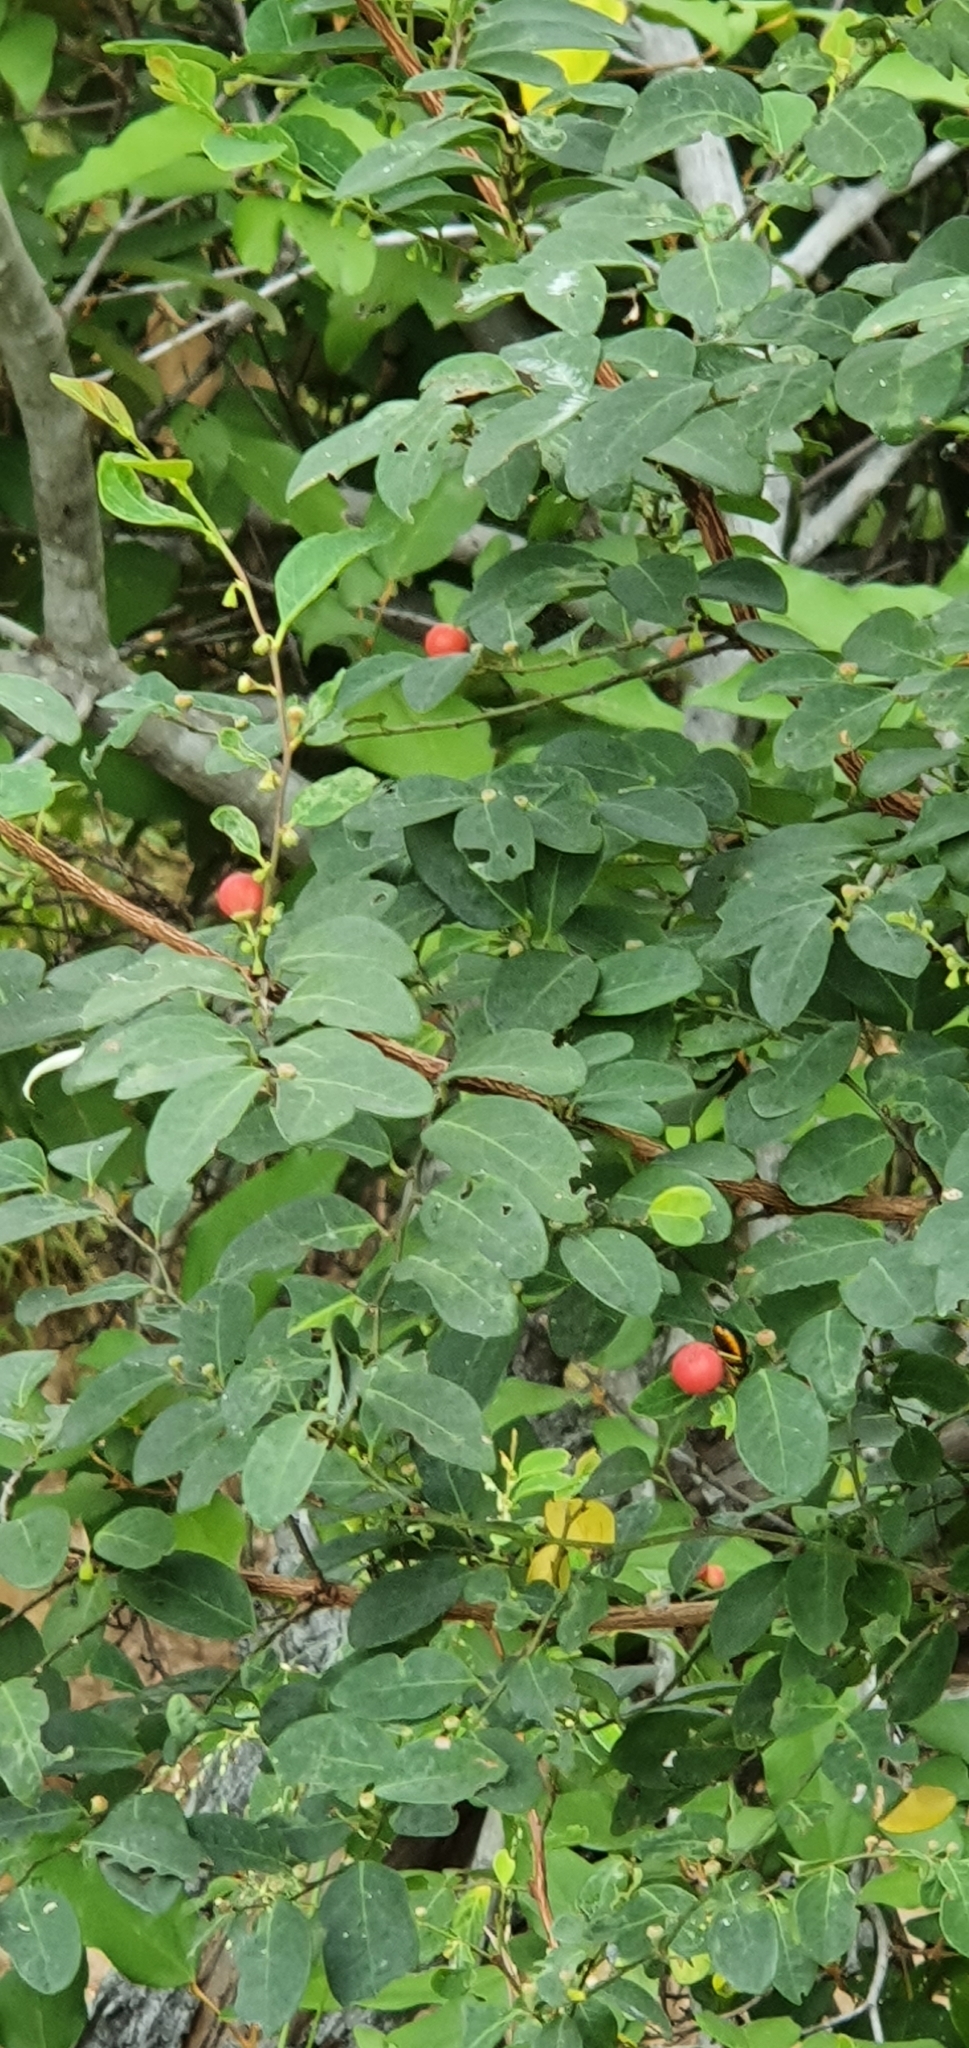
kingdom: Plantae
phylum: Tracheophyta
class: Magnoliopsida
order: Malpighiales
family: Phyllanthaceae
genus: Breynia
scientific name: Breynia oblongifolia
